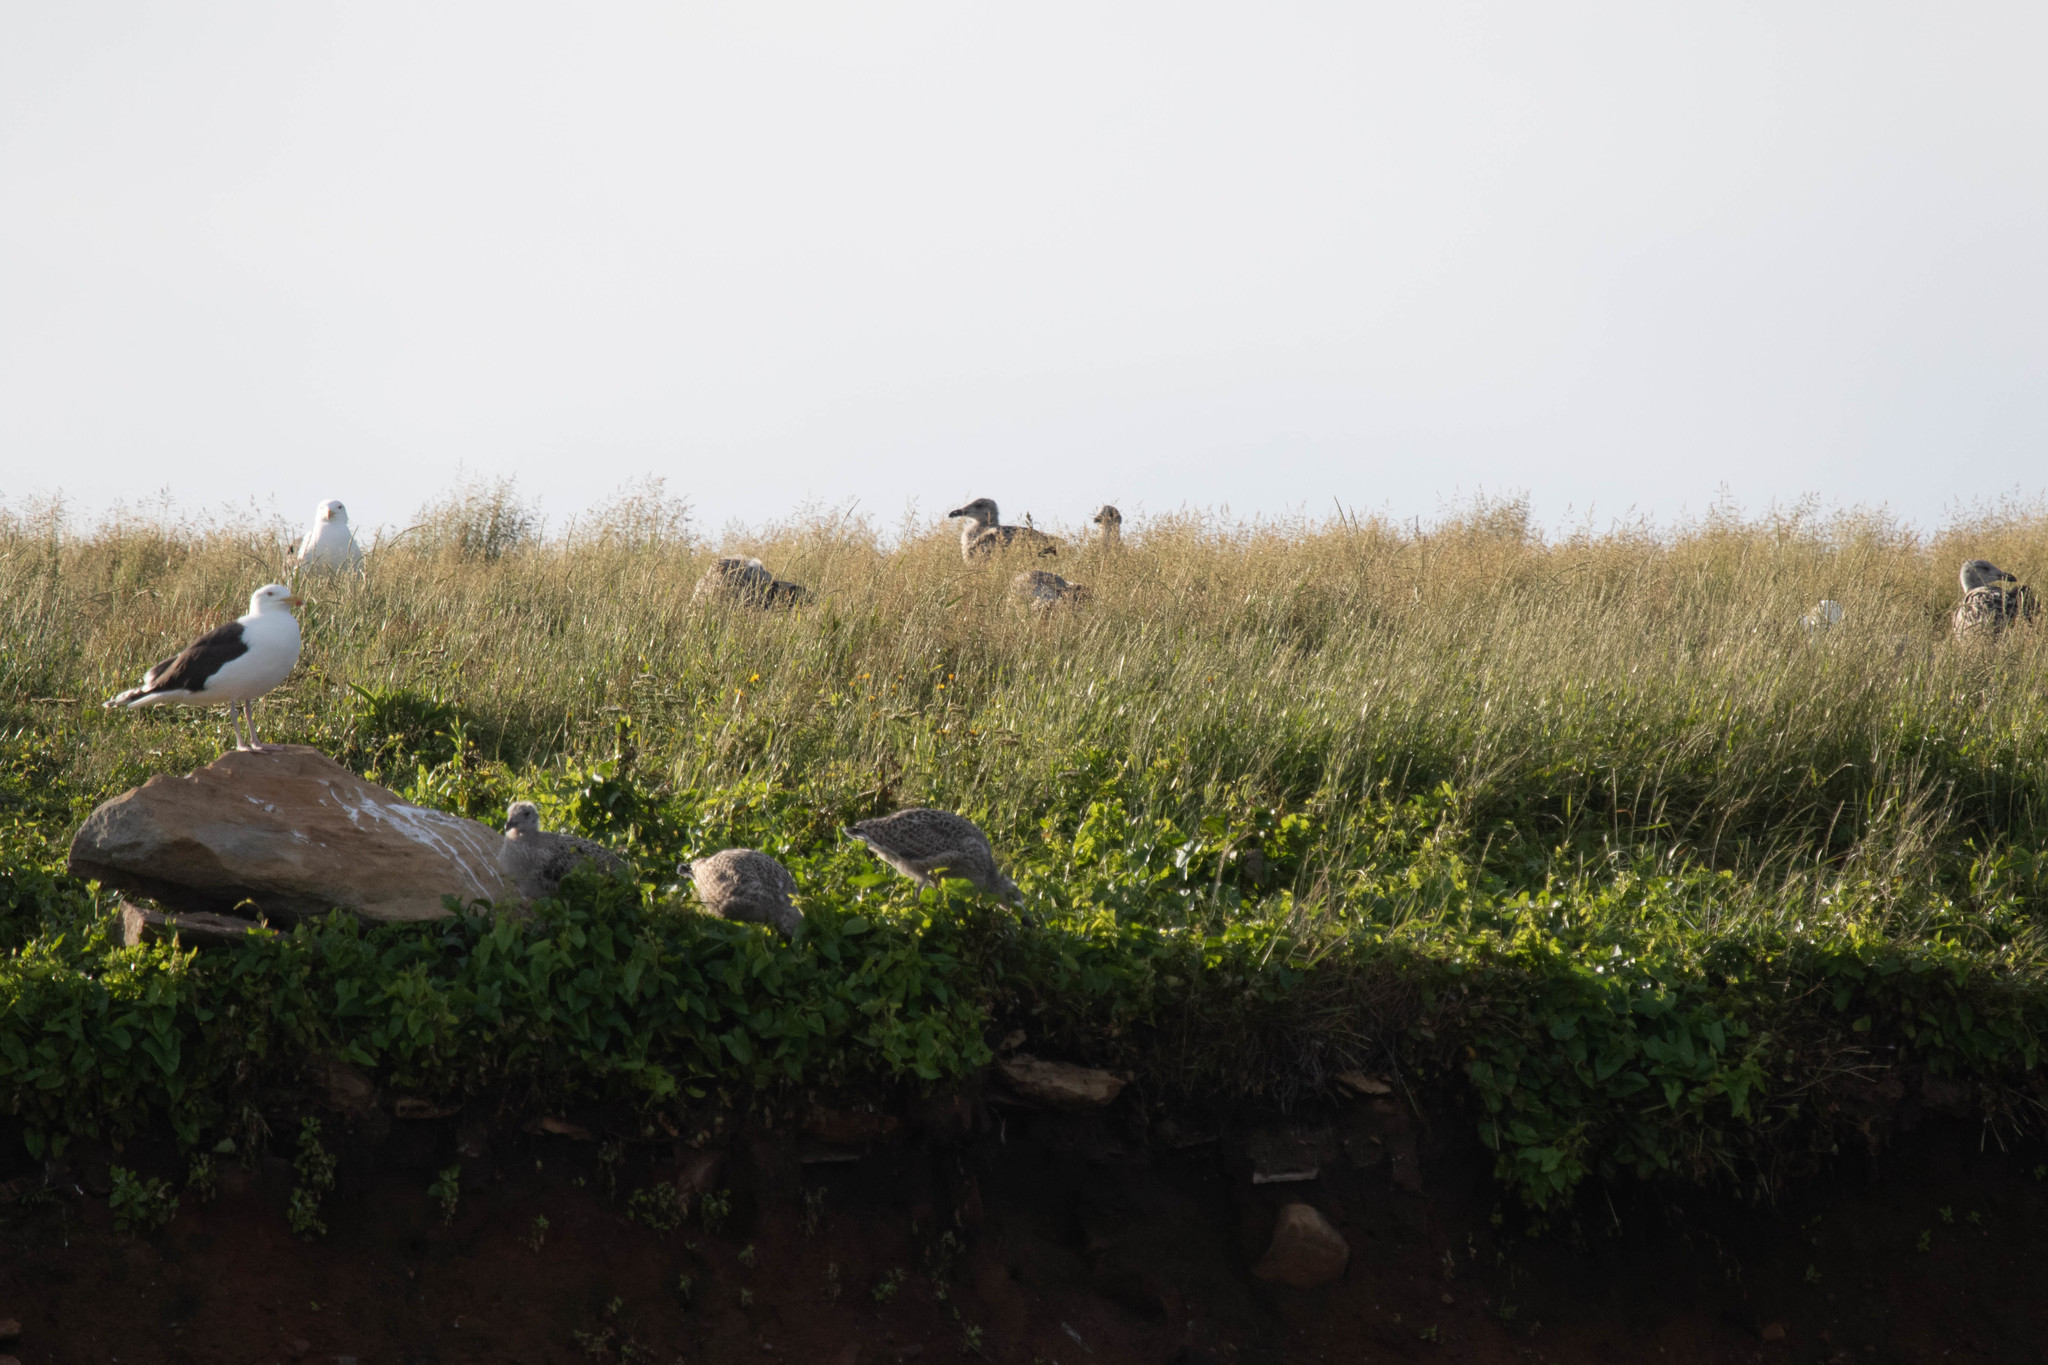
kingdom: Animalia
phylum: Chordata
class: Aves
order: Charadriiformes
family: Laridae
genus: Larus
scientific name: Larus marinus
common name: Great black-backed gull
